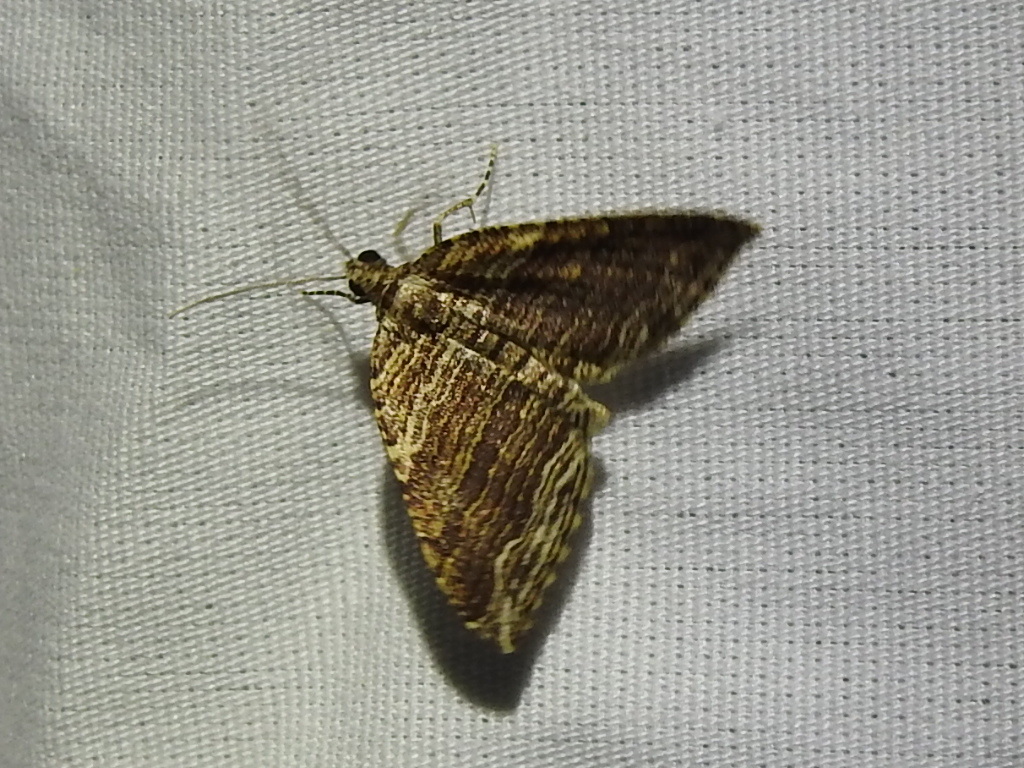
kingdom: Animalia
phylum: Arthropoda
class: Insecta
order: Lepidoptera
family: Geometridae
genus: Anticlea
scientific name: Anticlea multiferata
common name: Many-lined carpet
